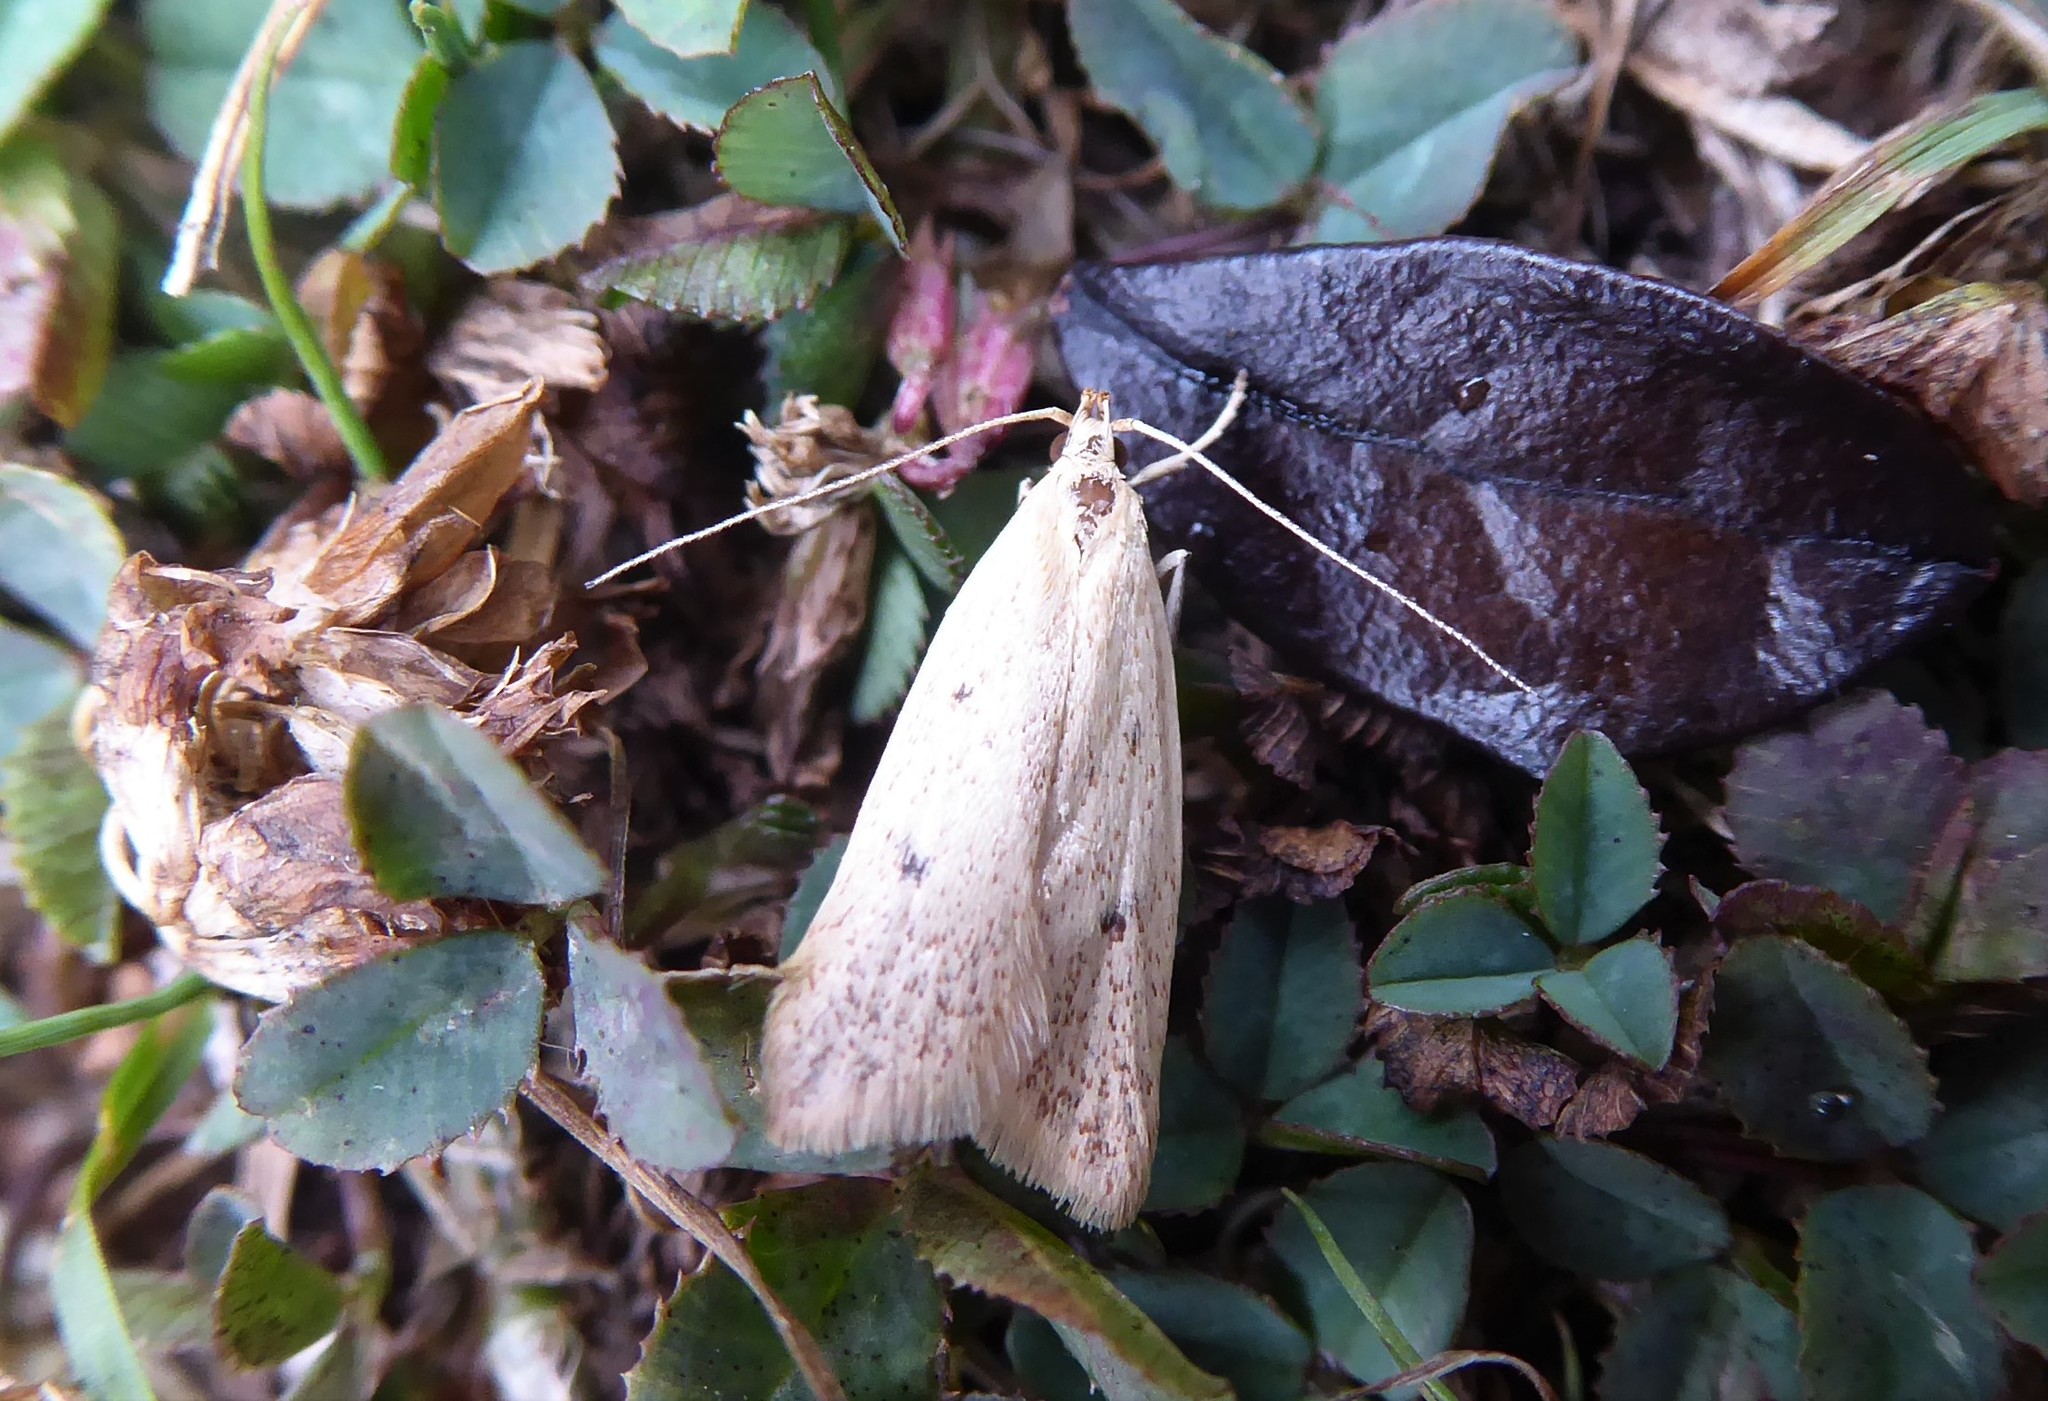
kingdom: Animalia
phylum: Arthropoda
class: Insecta
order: Lepidoptera
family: Oecophoridae
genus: Gymnobathra
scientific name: Gymnobathra sarcoxantha
